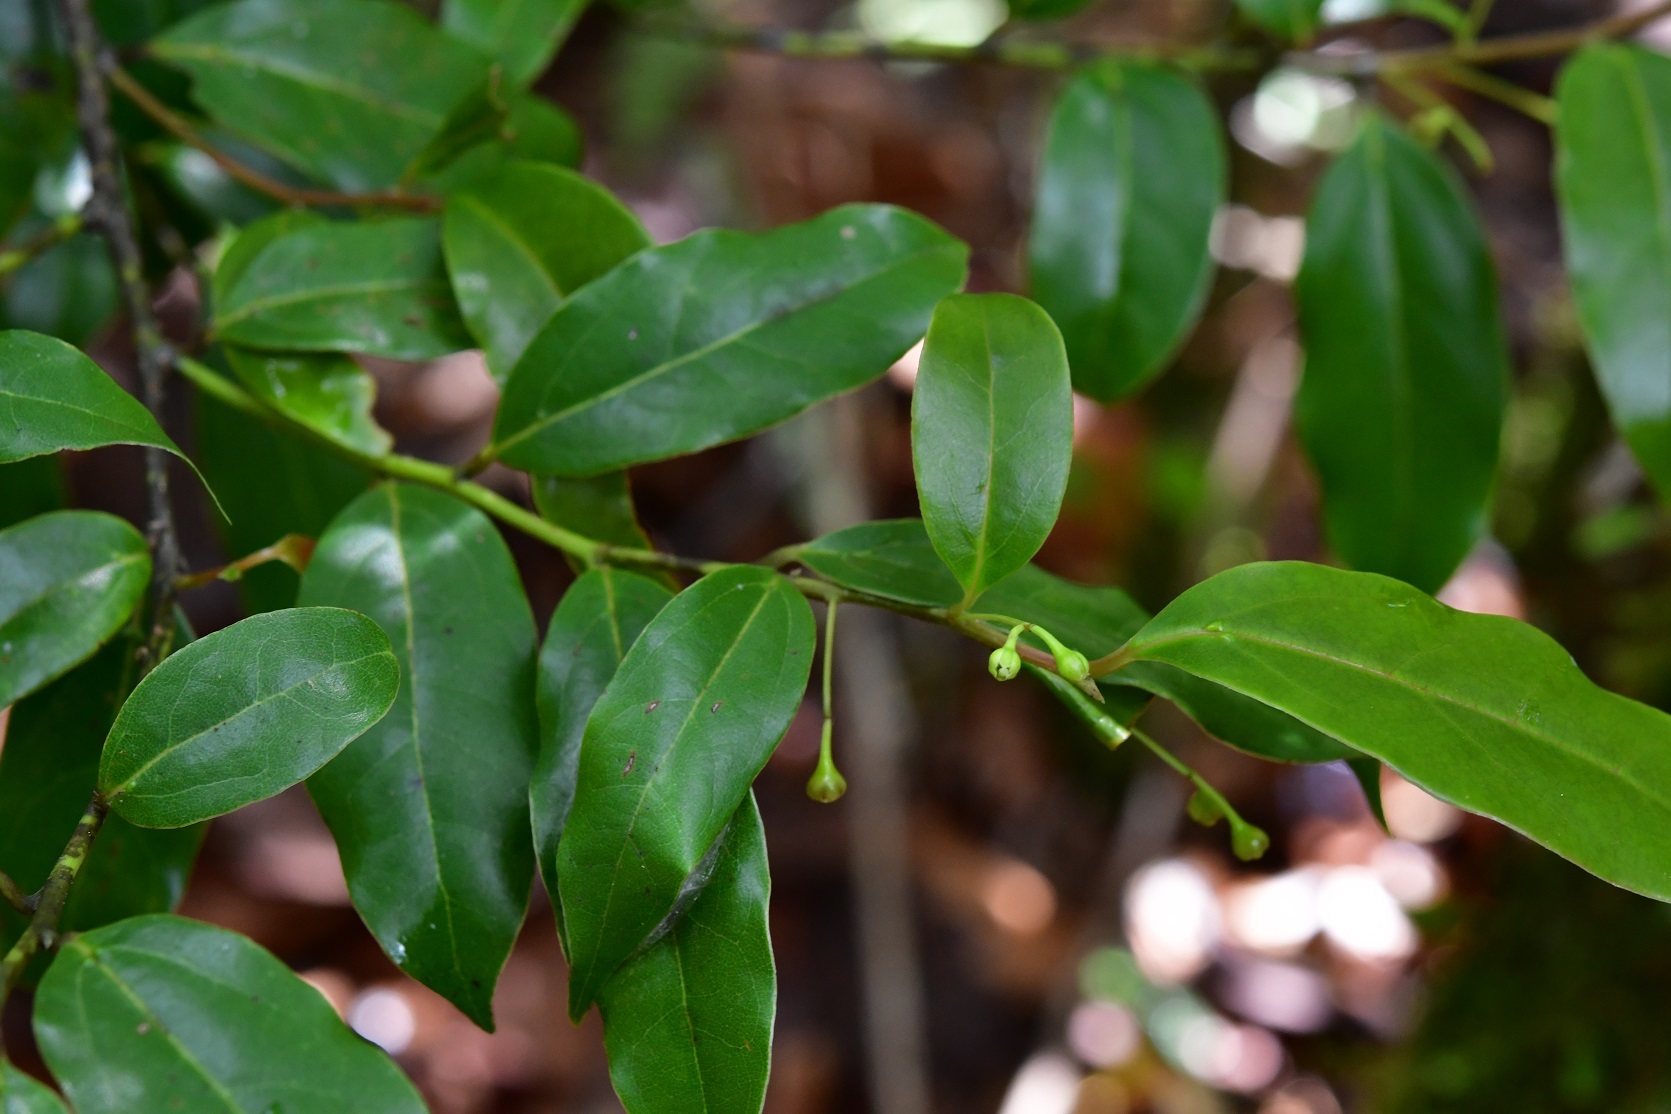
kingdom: Plantae
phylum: Tracheophyta
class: Magnoliopsida
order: Laurales
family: Lauraceae
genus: Aiouea
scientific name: Aiouea chiapensis
